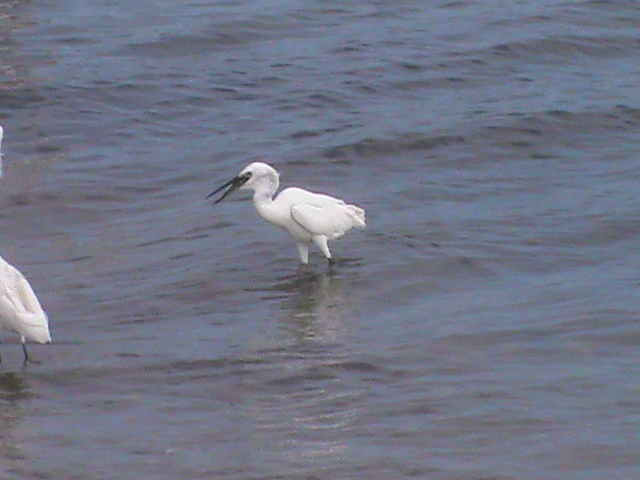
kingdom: Animalia
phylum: Chordata
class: Aves
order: Pelecaniformes
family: Ardeidae
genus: Egretta
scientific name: Egretta garzetta
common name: Little egret
